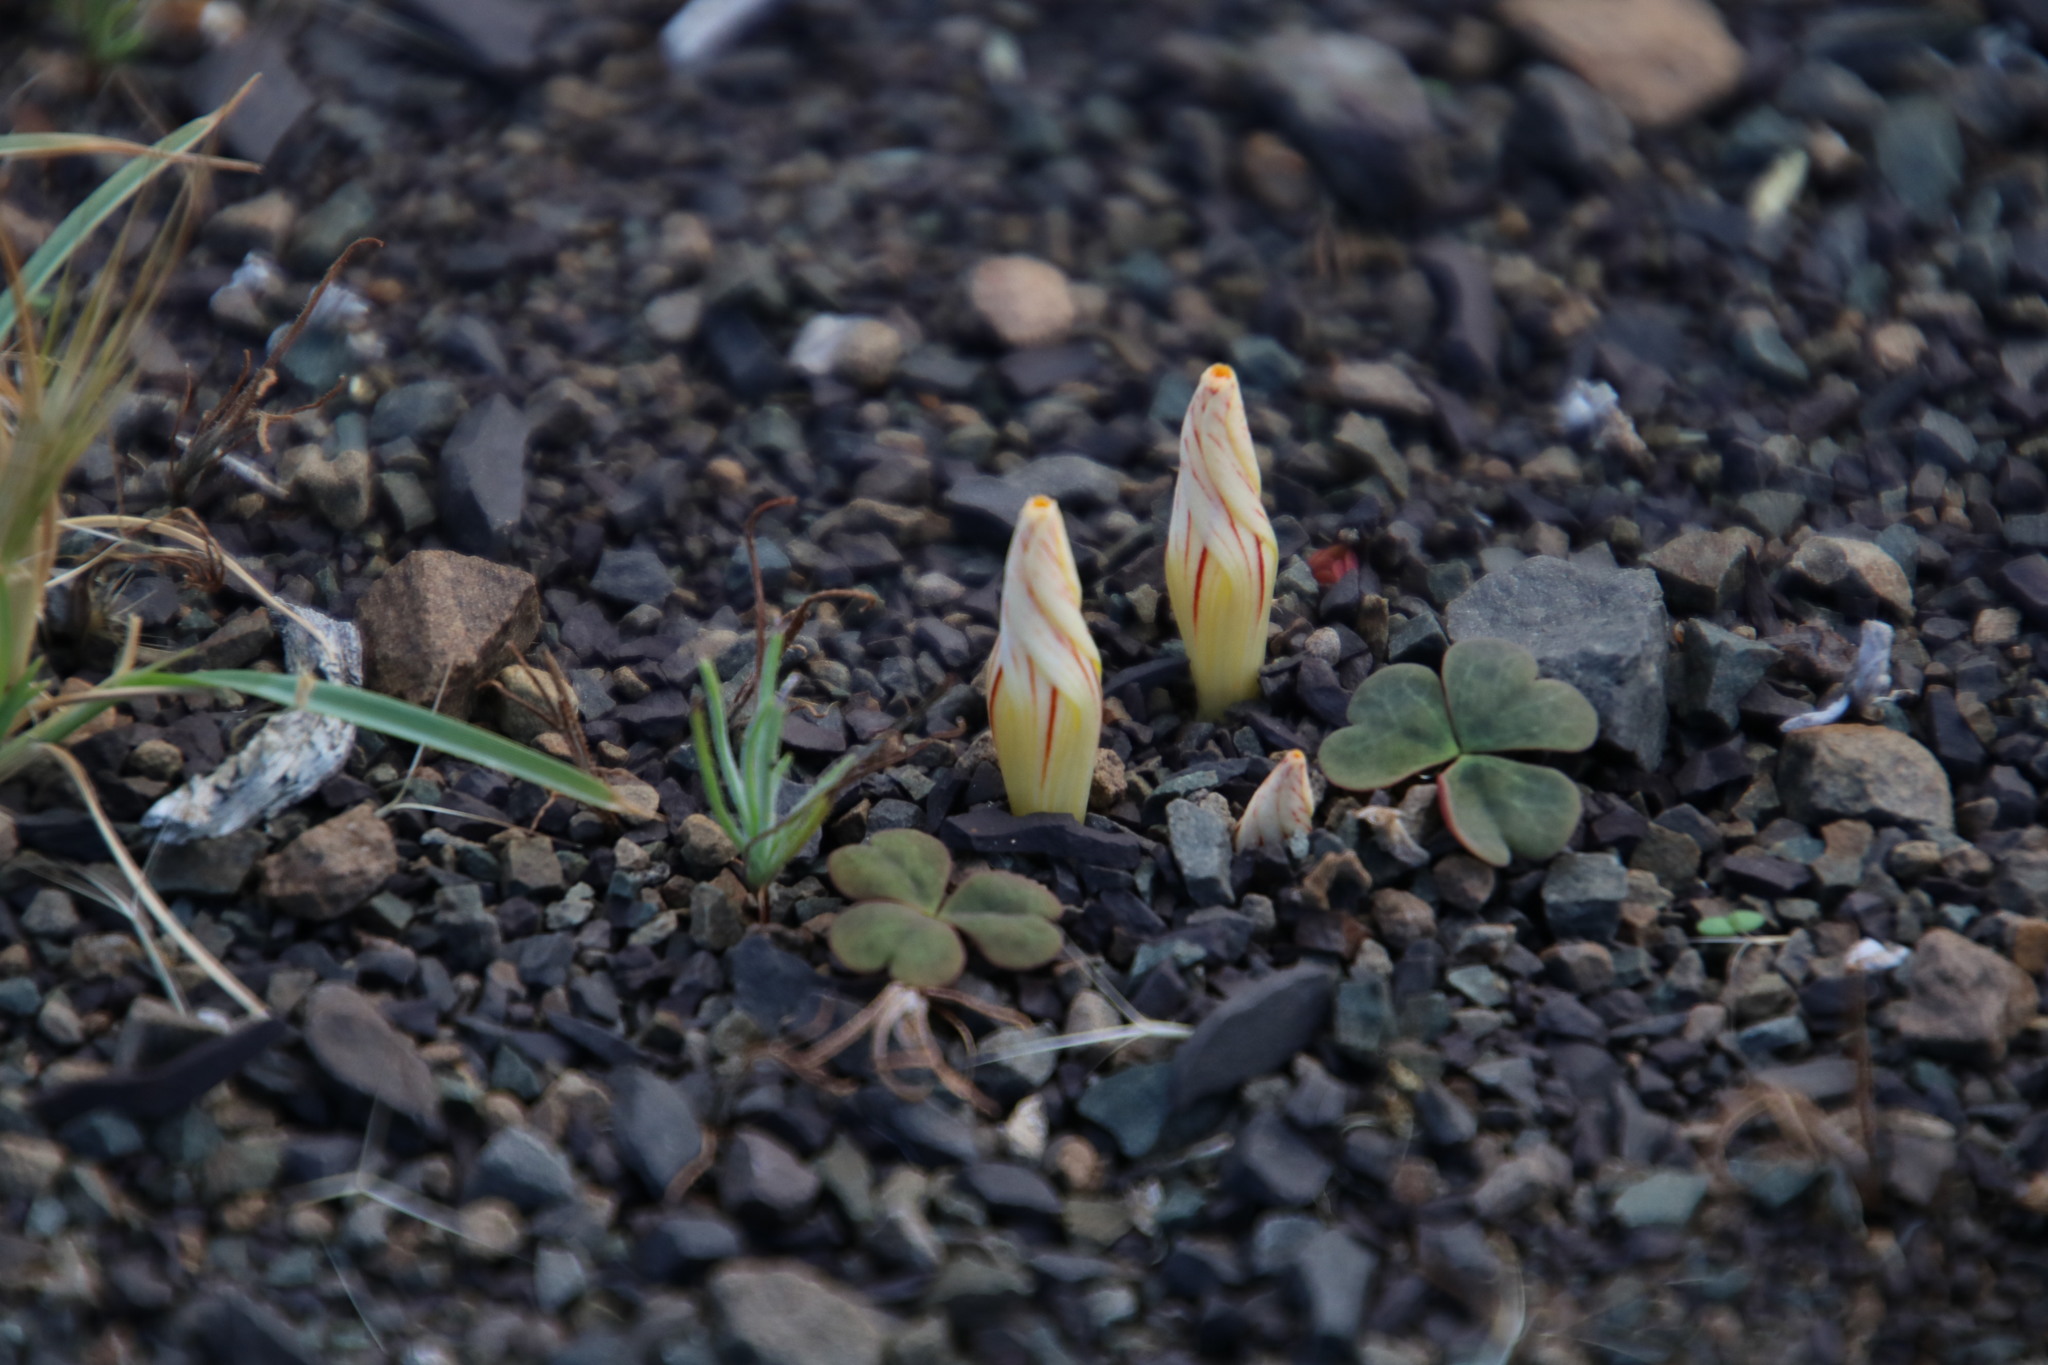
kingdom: Plantae
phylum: Tracheophyta
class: Magnoliopsida
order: Oxalidales
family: Oxalidaceae
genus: Oxalis
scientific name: Oxalis grammopetala
